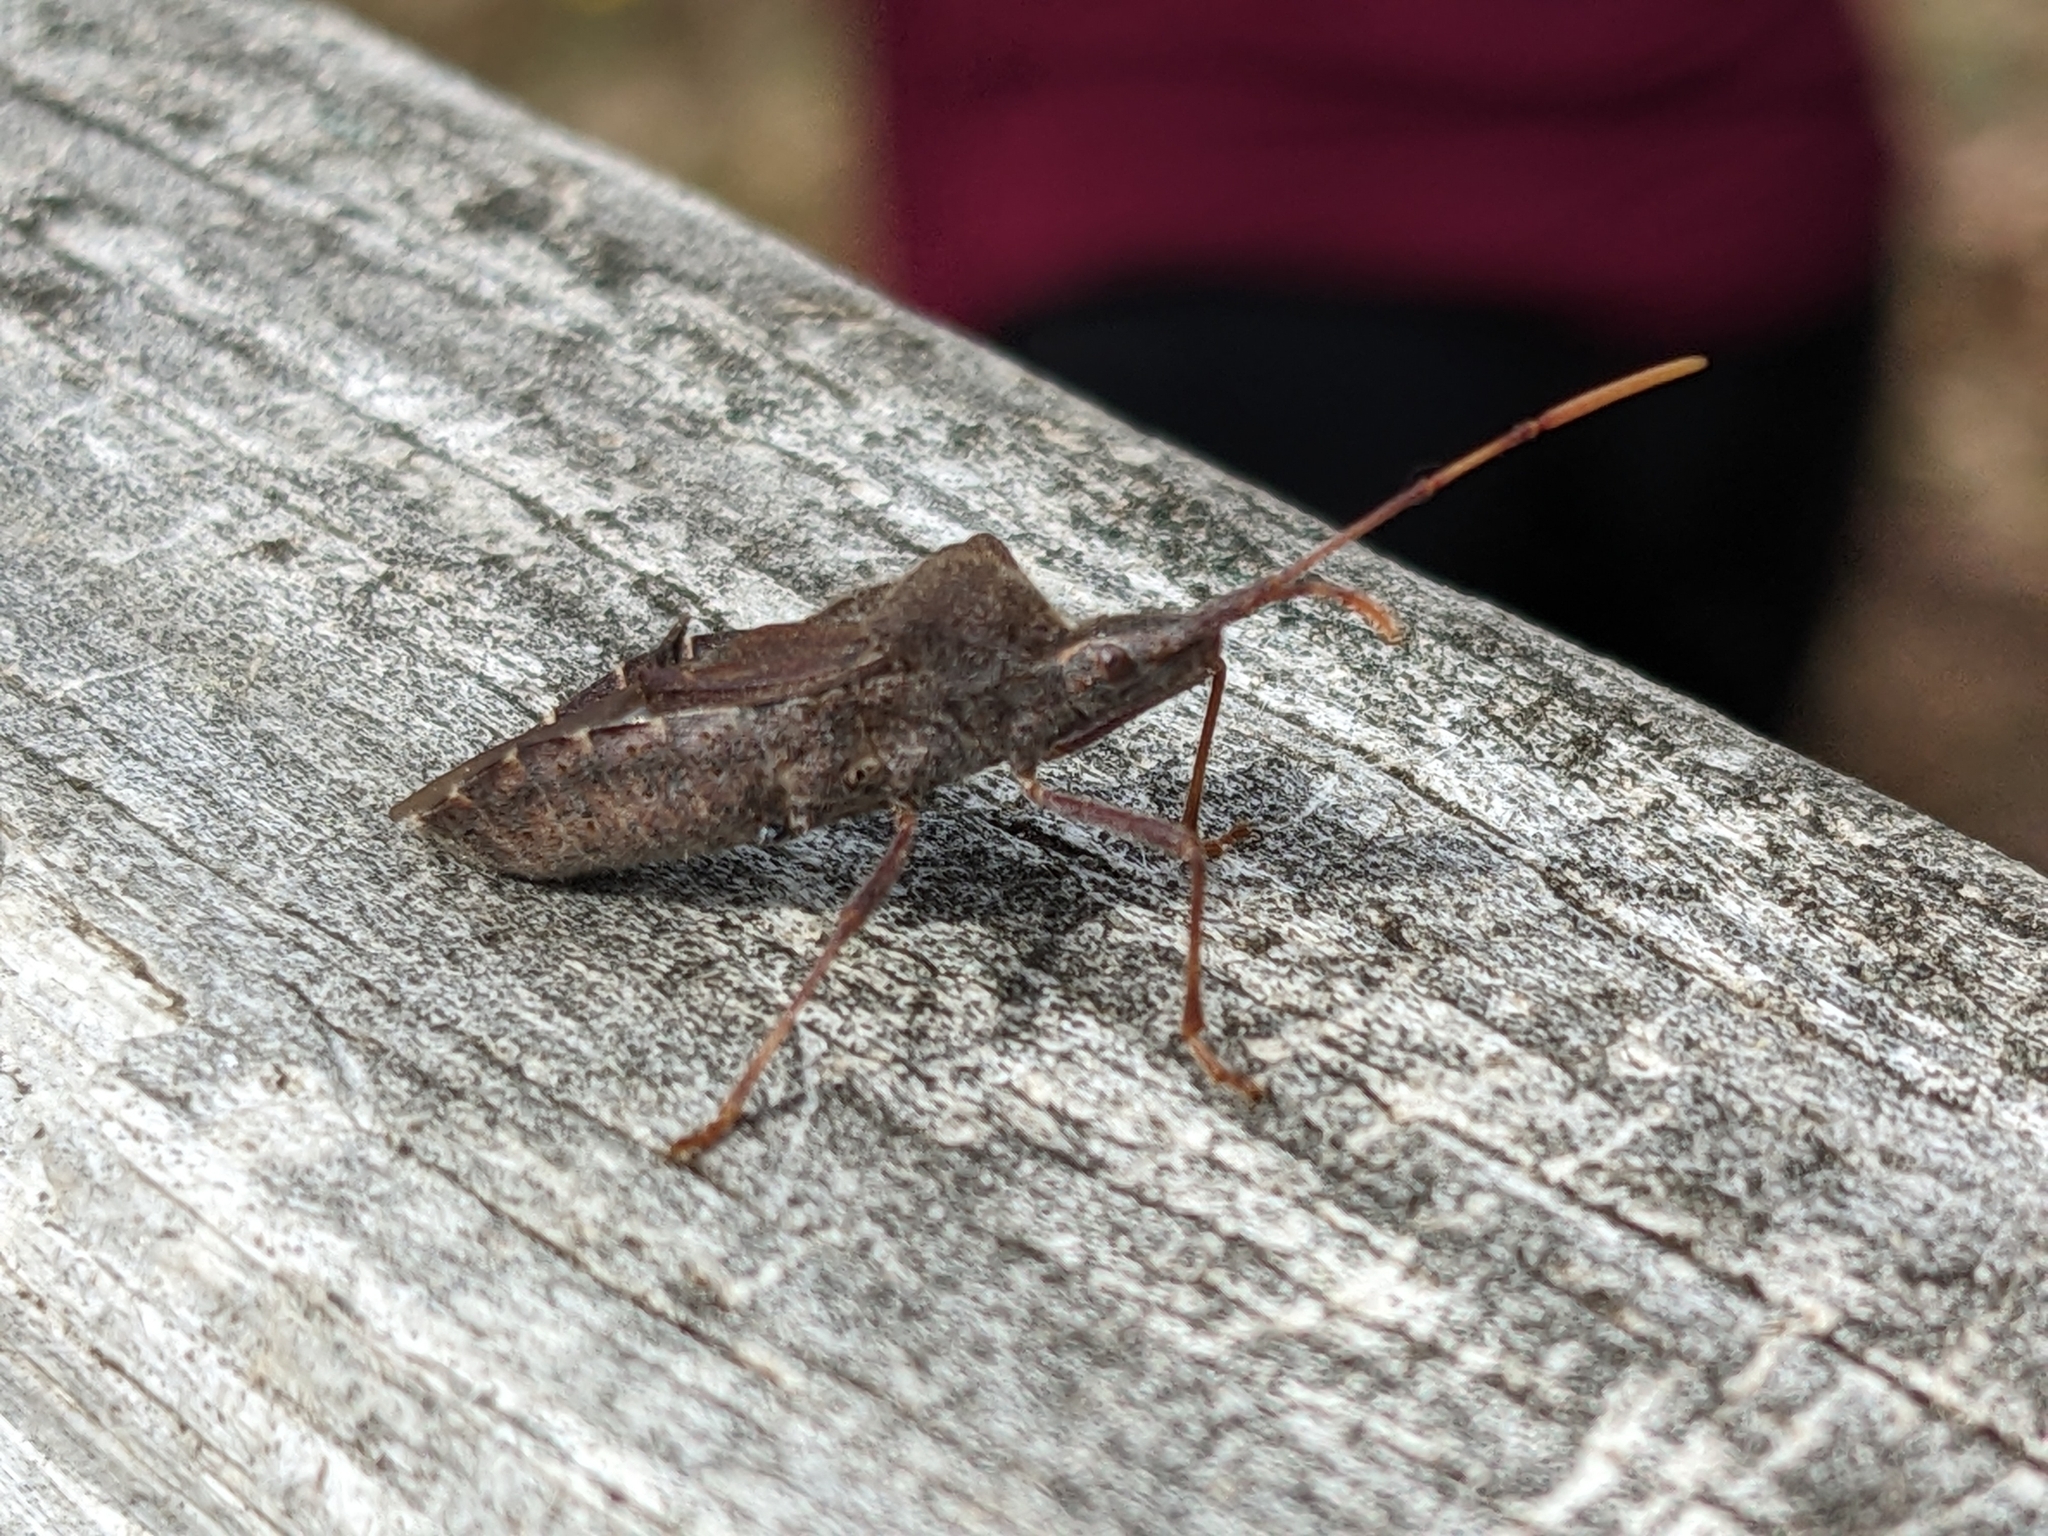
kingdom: Animalia
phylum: Arthropoda
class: Insecta
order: Hemiptera
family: Coreidae
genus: Leptoglossus
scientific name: Leptoglossus oppositus
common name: Northern leaf-footed bug
